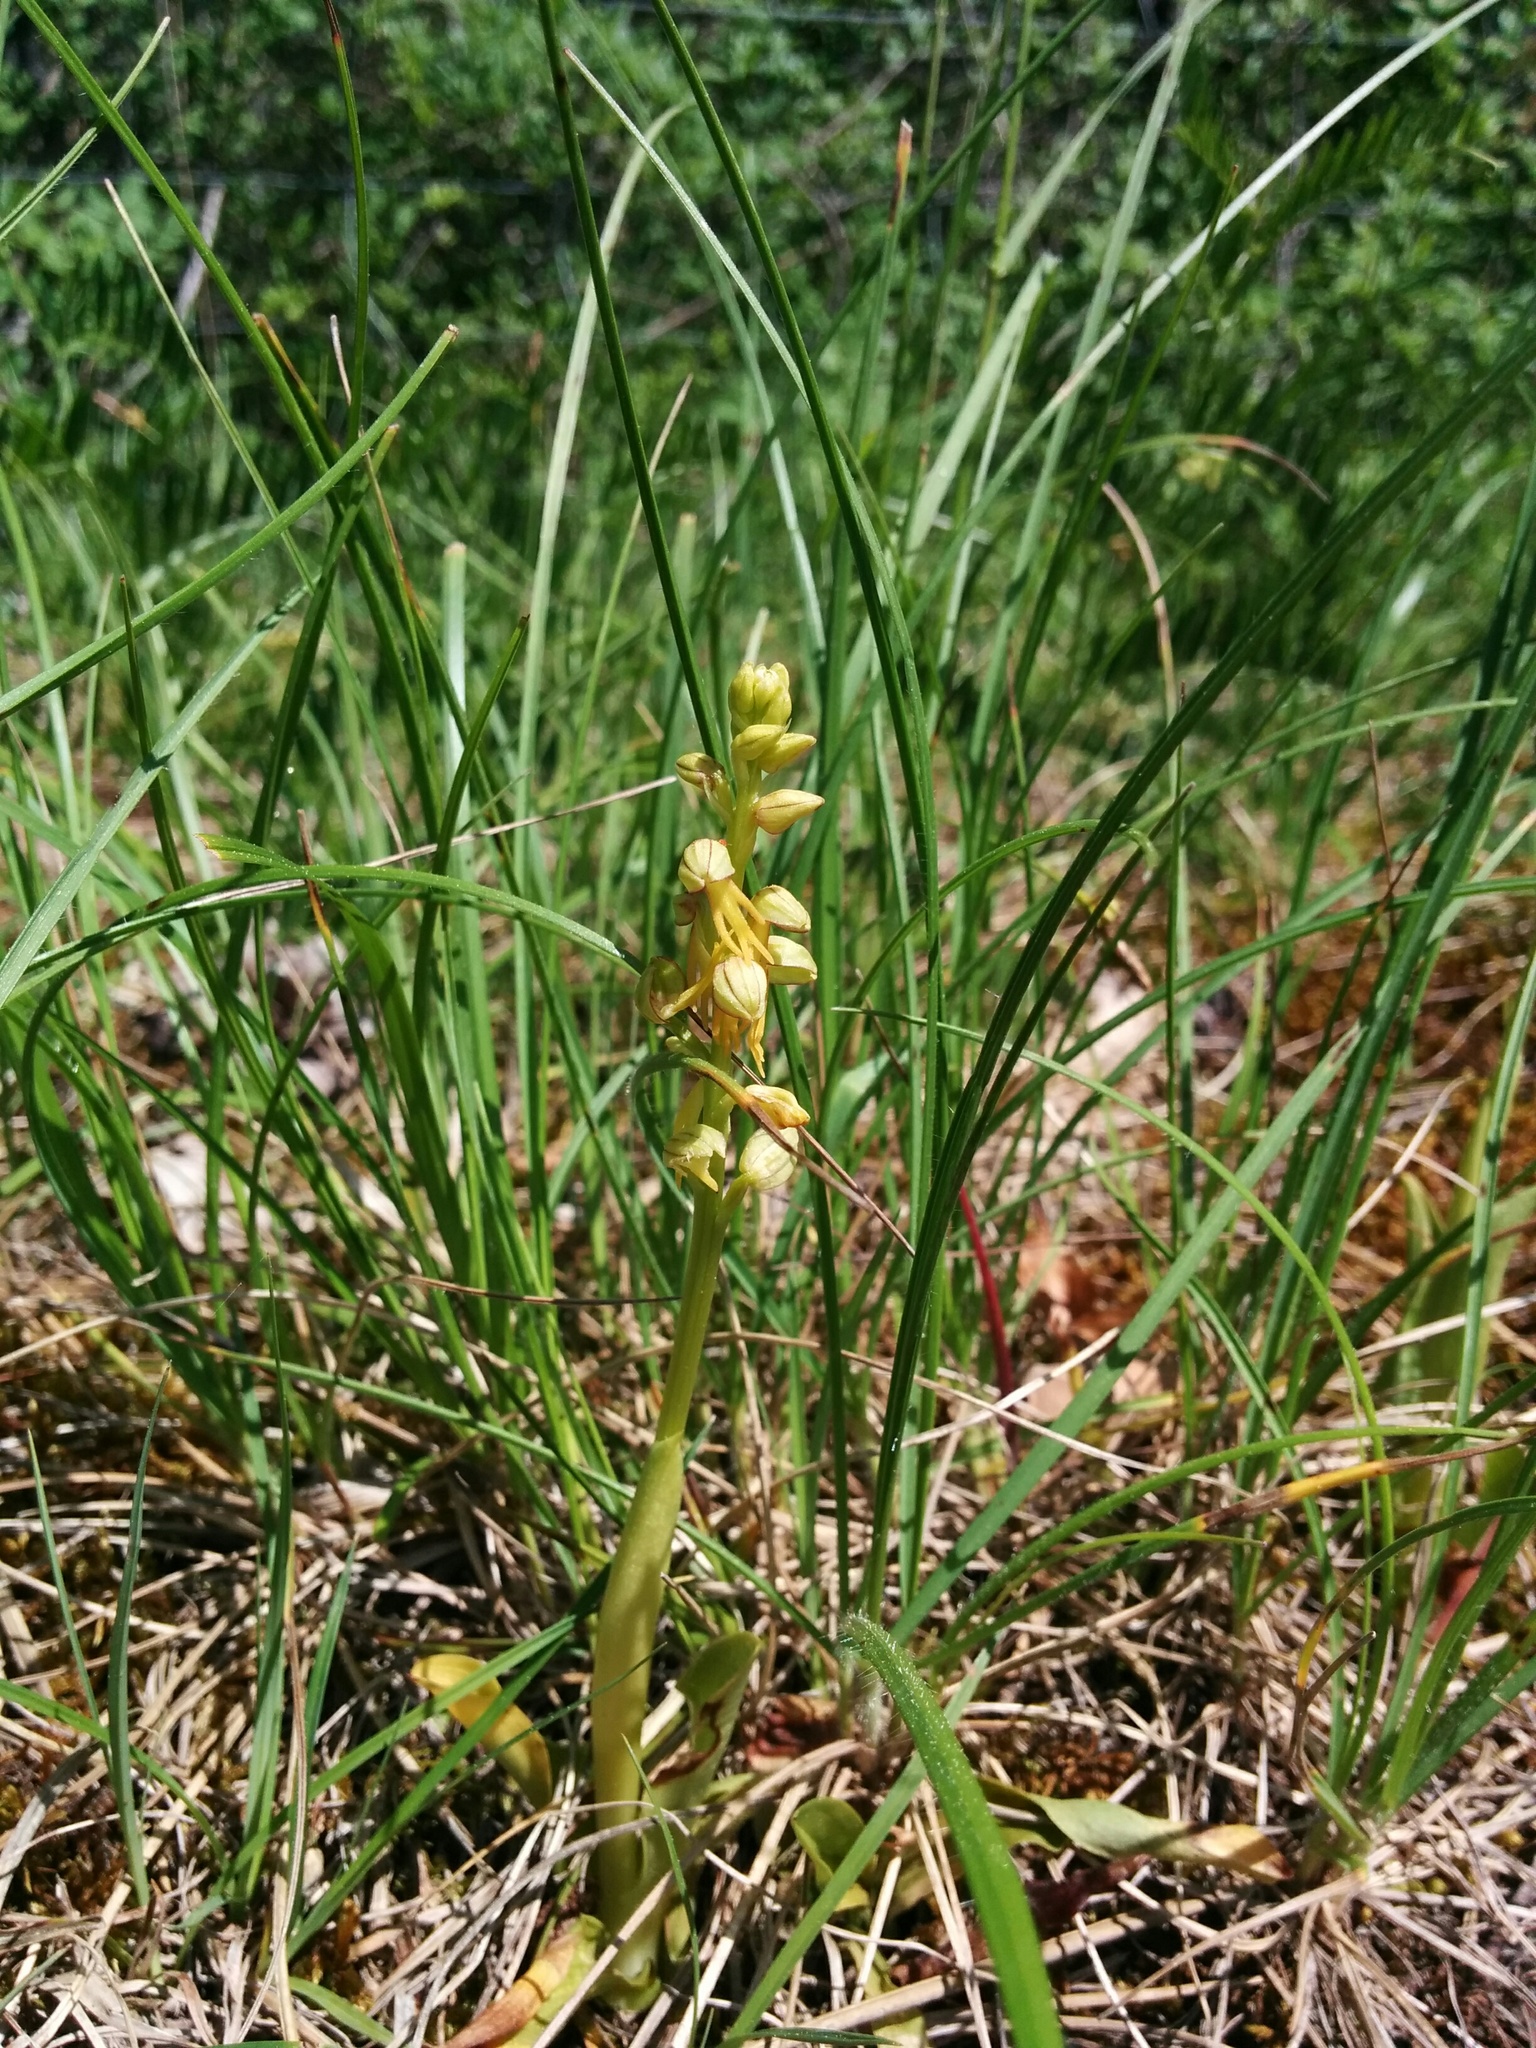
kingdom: Plantae
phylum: Tracheophyta
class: Liliopsida
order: Asparagales
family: Orchidaceae
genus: Orchis
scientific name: Orchis anthropophora
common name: Man orchid
